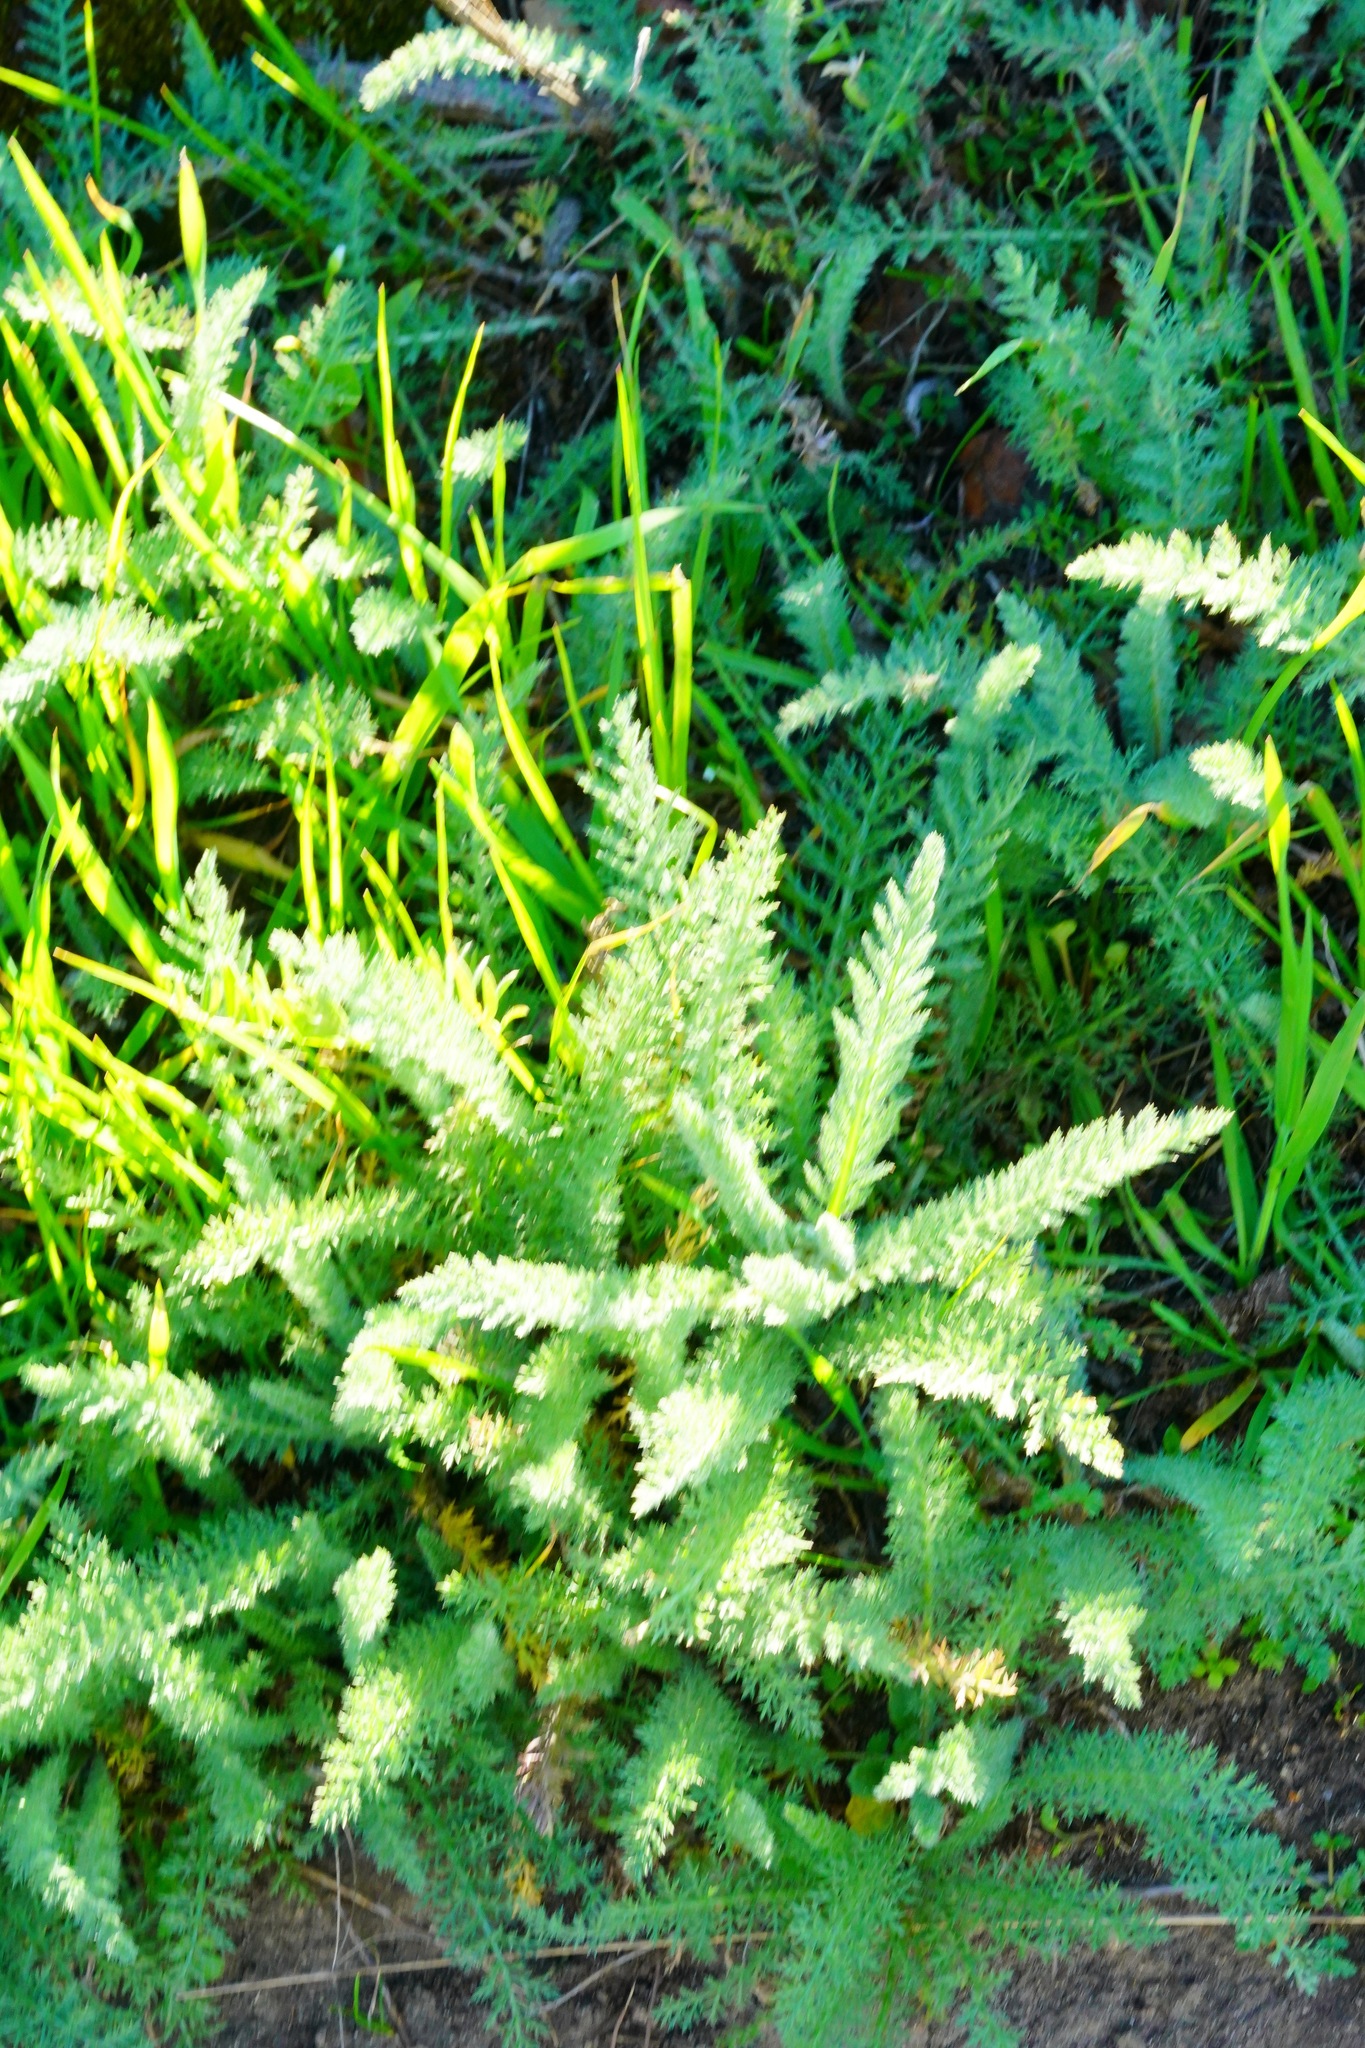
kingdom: Plantae
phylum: Tracheophyta
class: Magnoliopsida
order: Asterales
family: Asteraceae
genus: Achillea
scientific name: Achillea millefolium
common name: Yarrow
